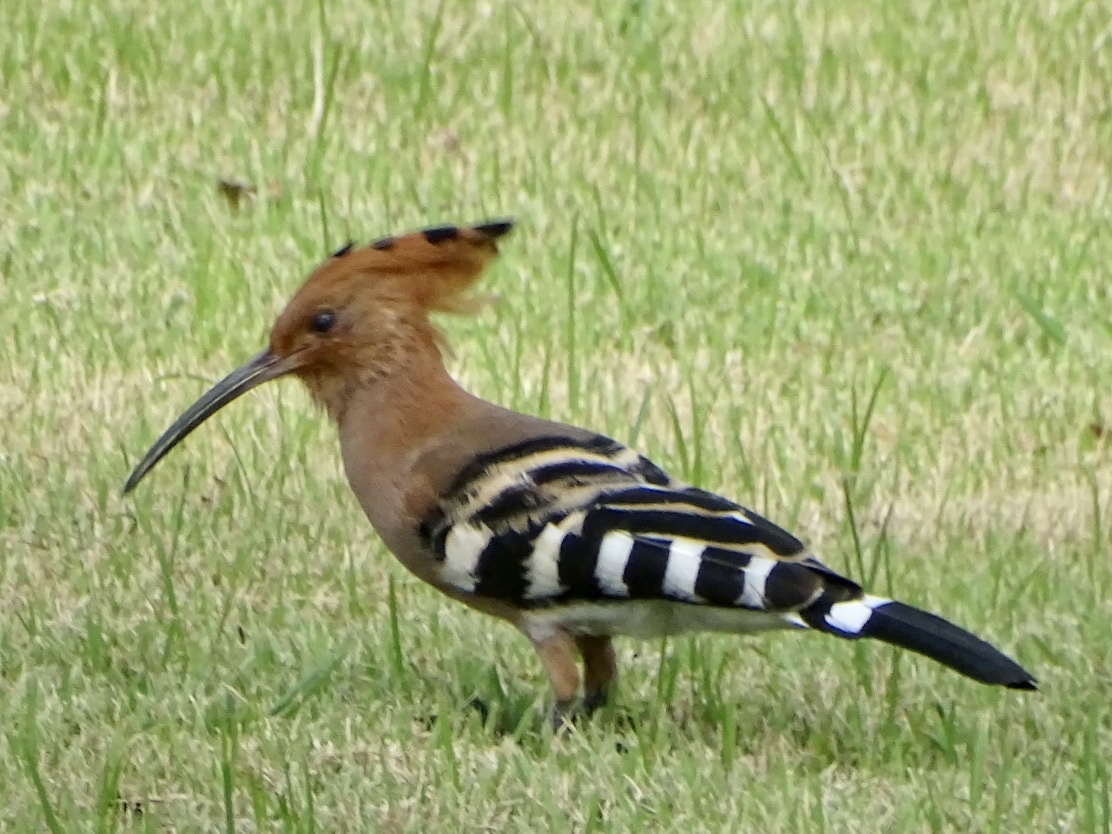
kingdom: Animalia
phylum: Chordata
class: Aves
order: Bucerotiformes
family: Upupidae
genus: Upupa
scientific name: Upupa epops
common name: Eurasian hoopoe
